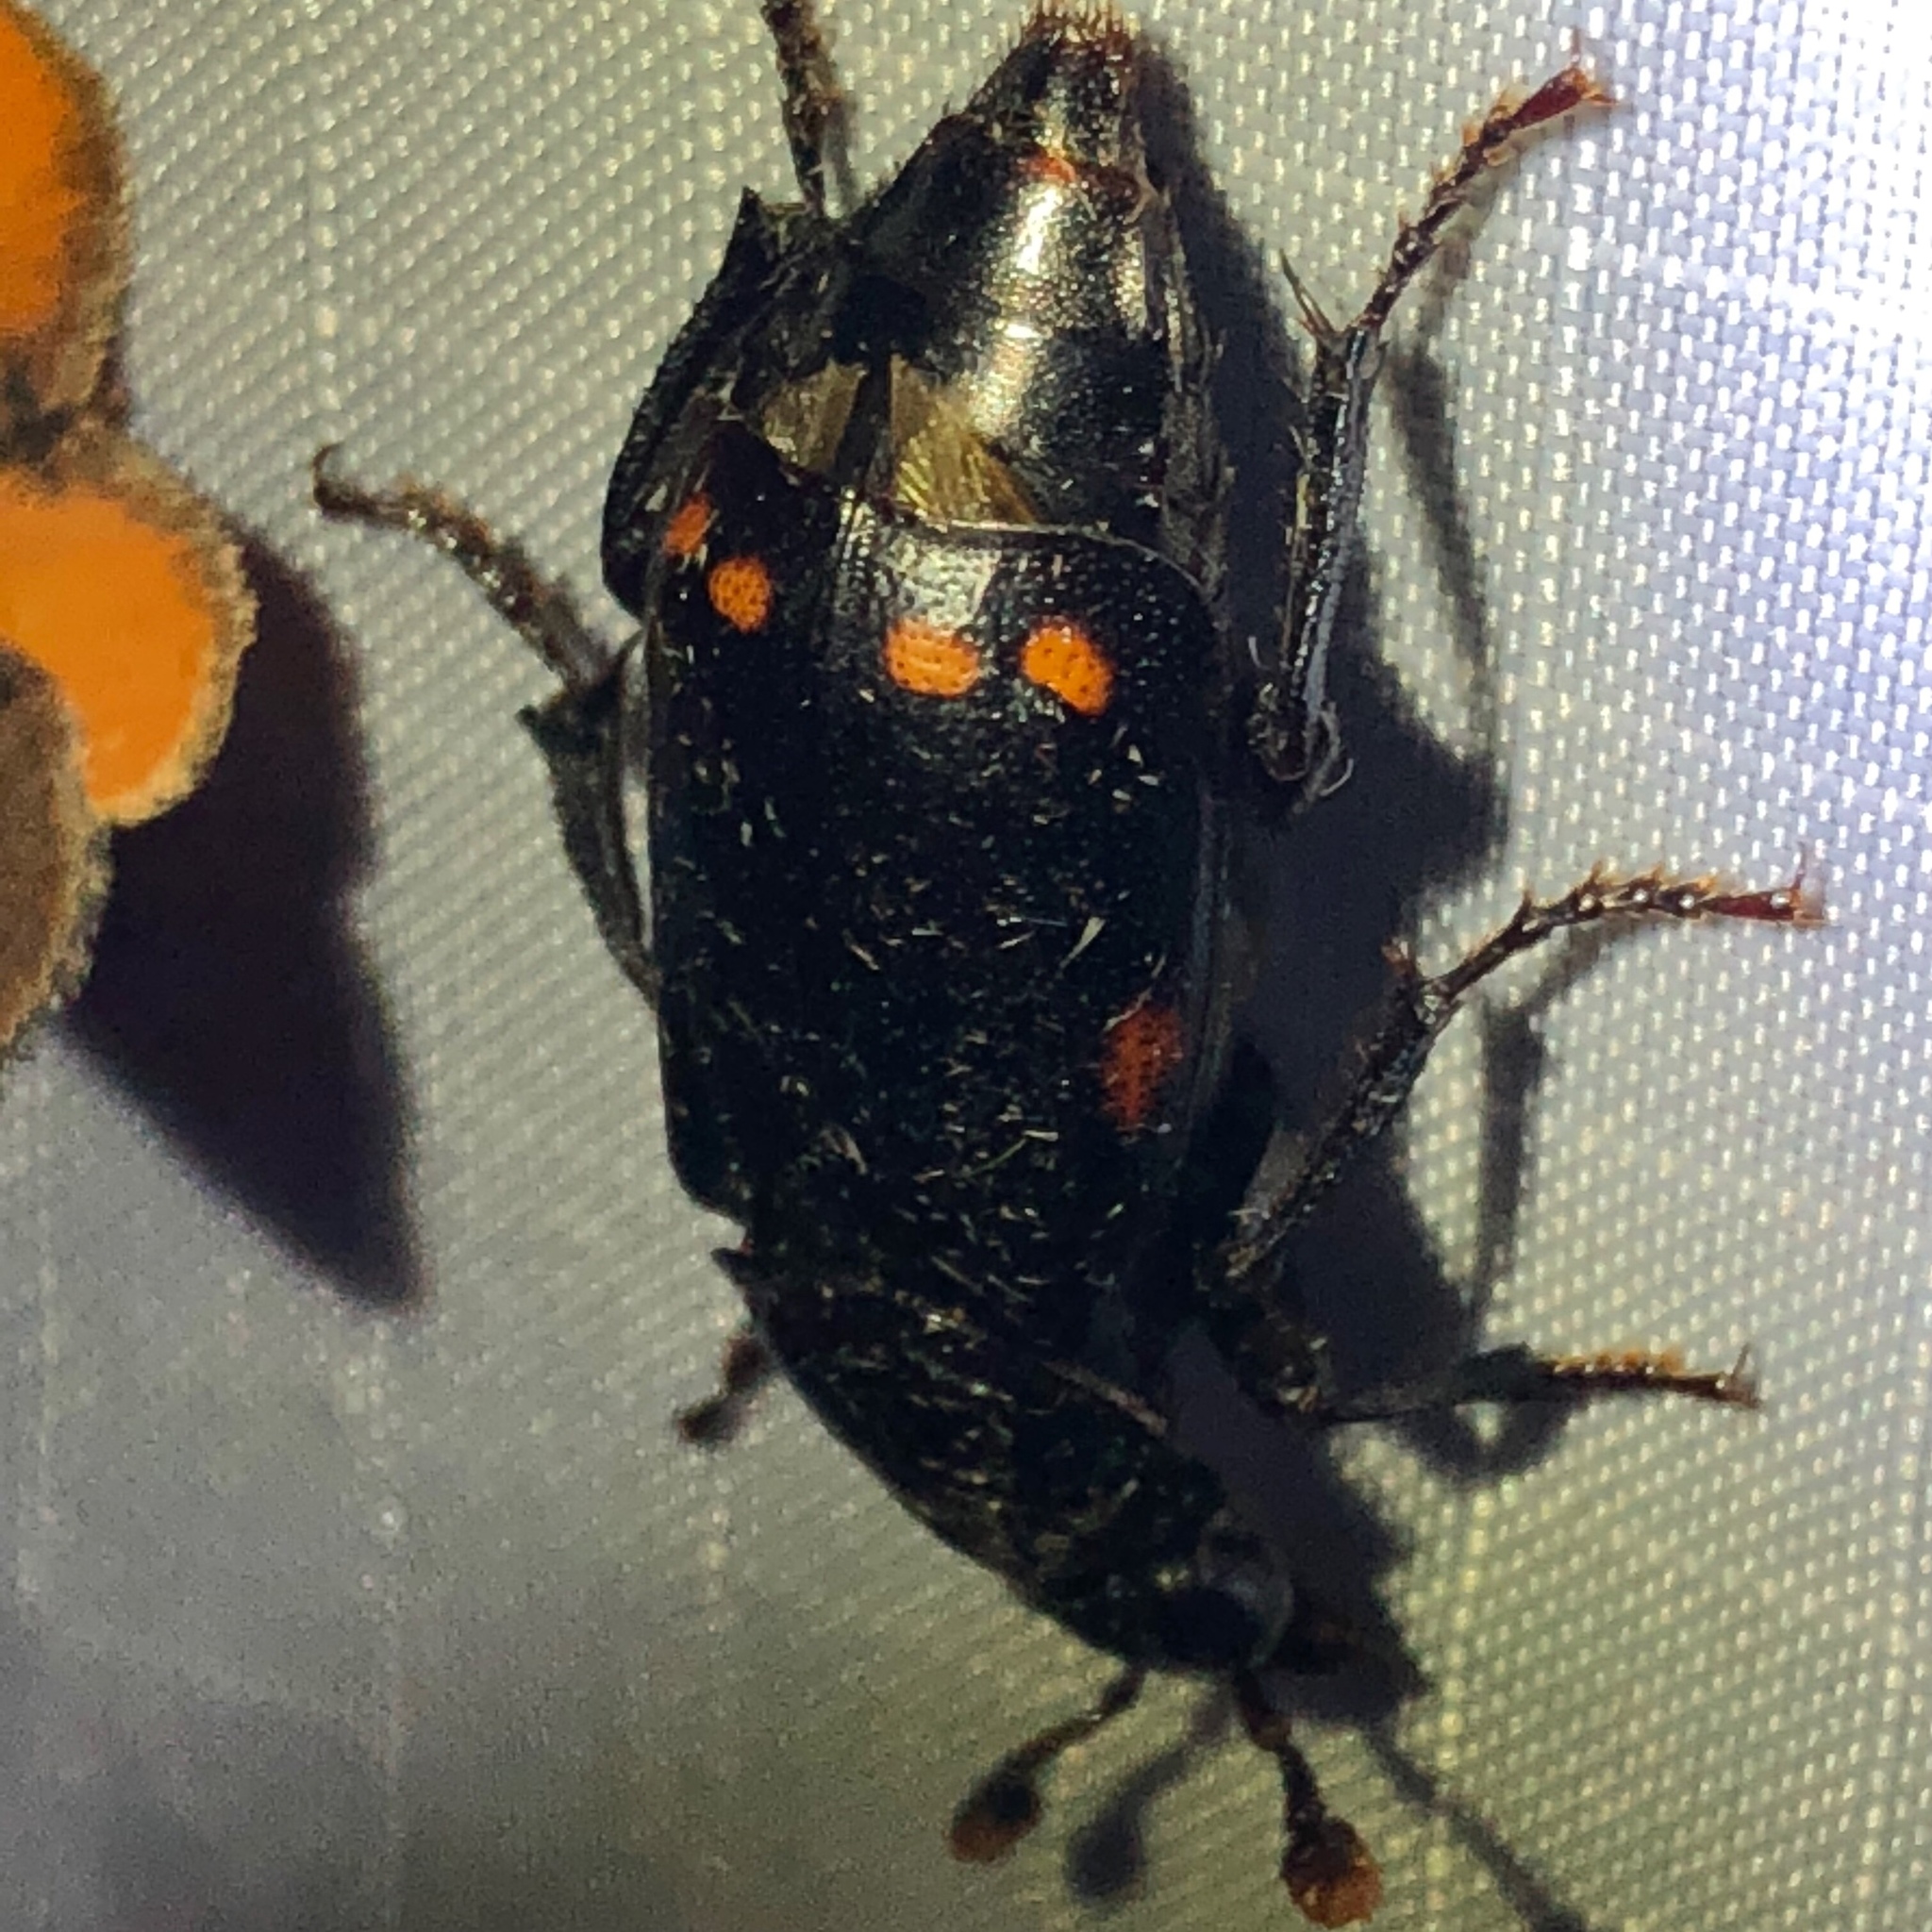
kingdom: Animalia
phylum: Arthropoda
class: Insecta
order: Coleoptera
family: Staphylinidae
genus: Nicrophorus
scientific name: Nicrophorus pustulatus
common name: Pustulated carrion beetle
